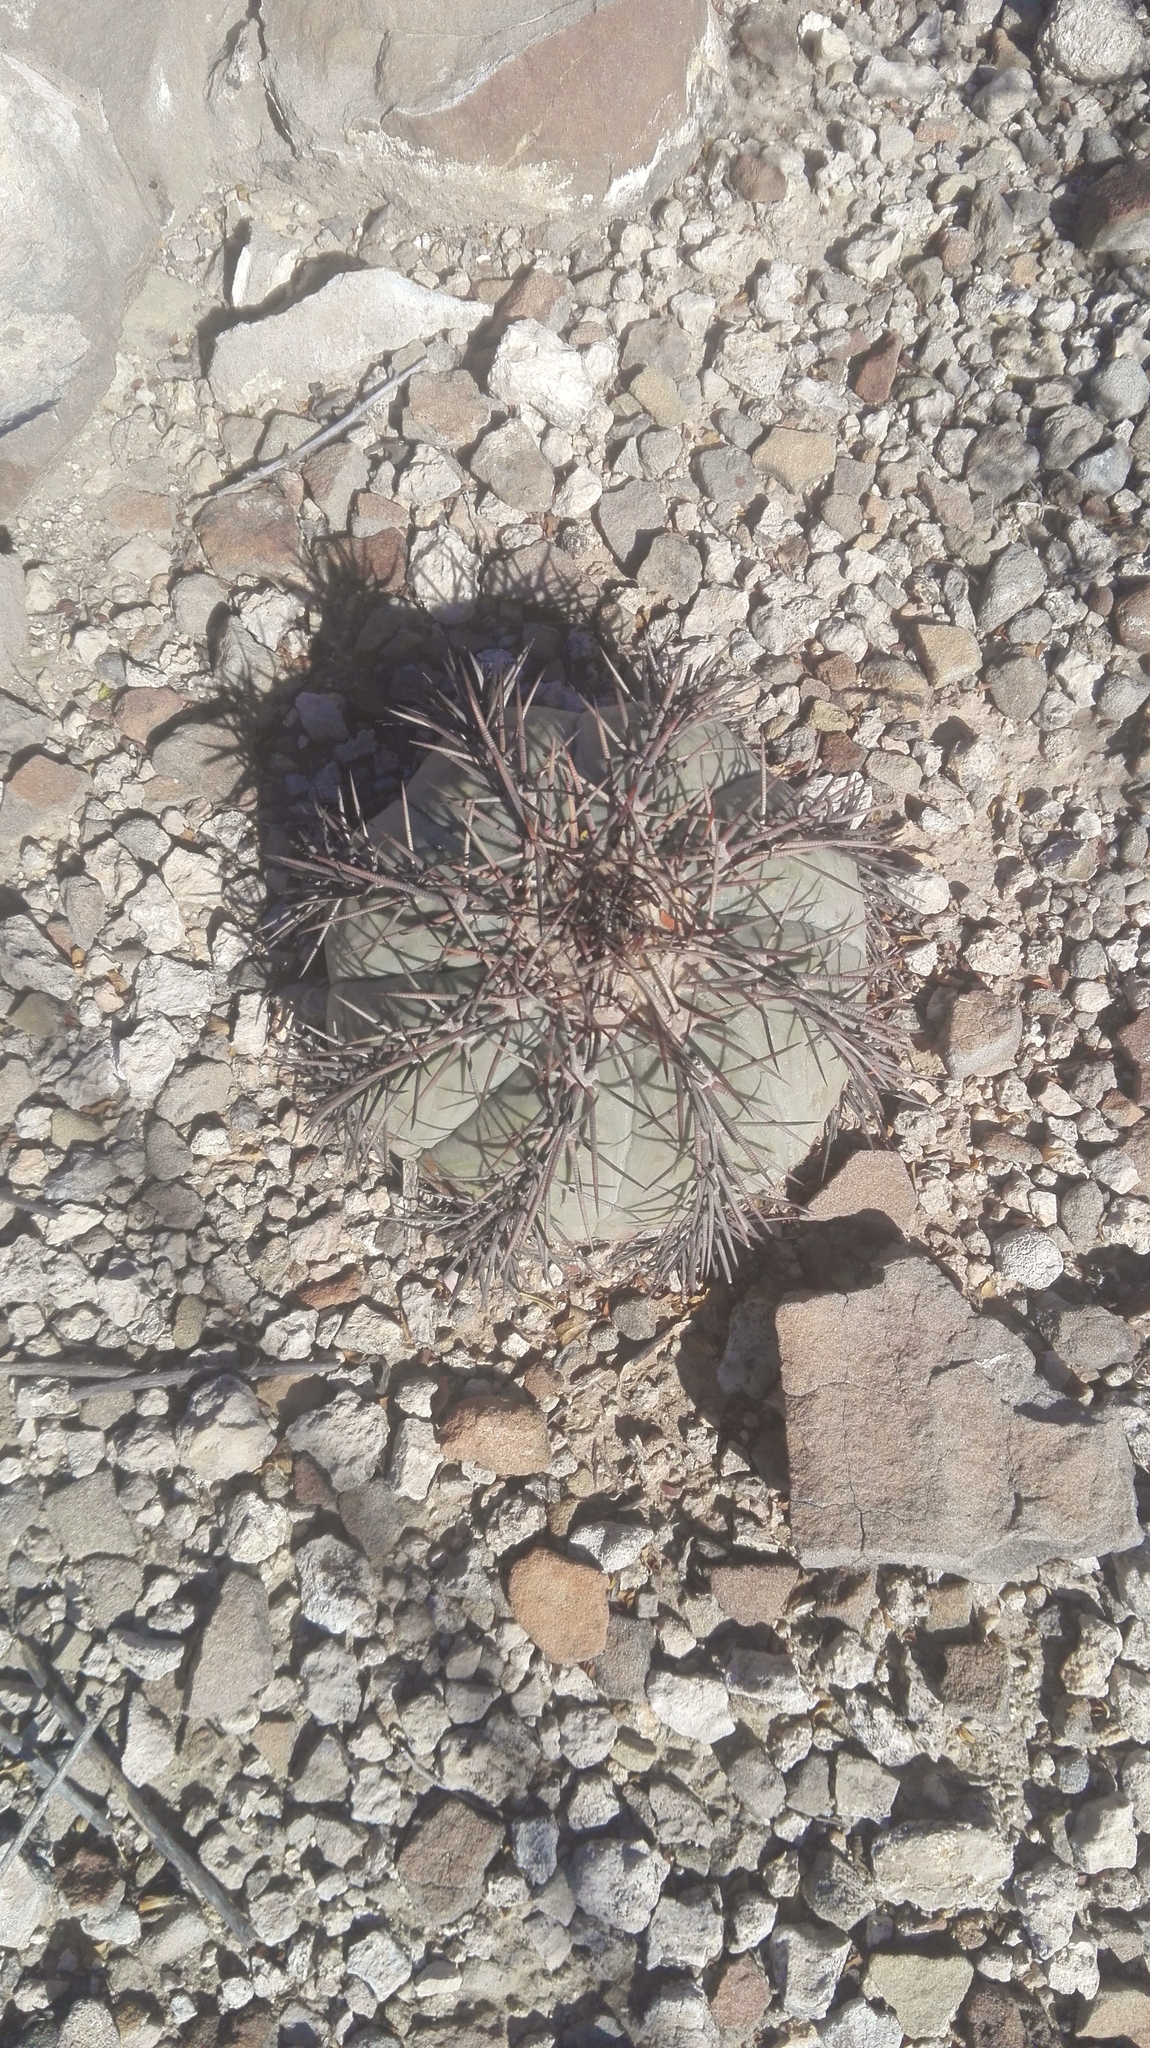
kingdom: Plantae
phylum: Tracheophyta
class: Magnoliopsida
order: Caryophyllales
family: Cactaceae
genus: Echinocactus
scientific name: Echinocactus horizonthalonius
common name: Devilshead
